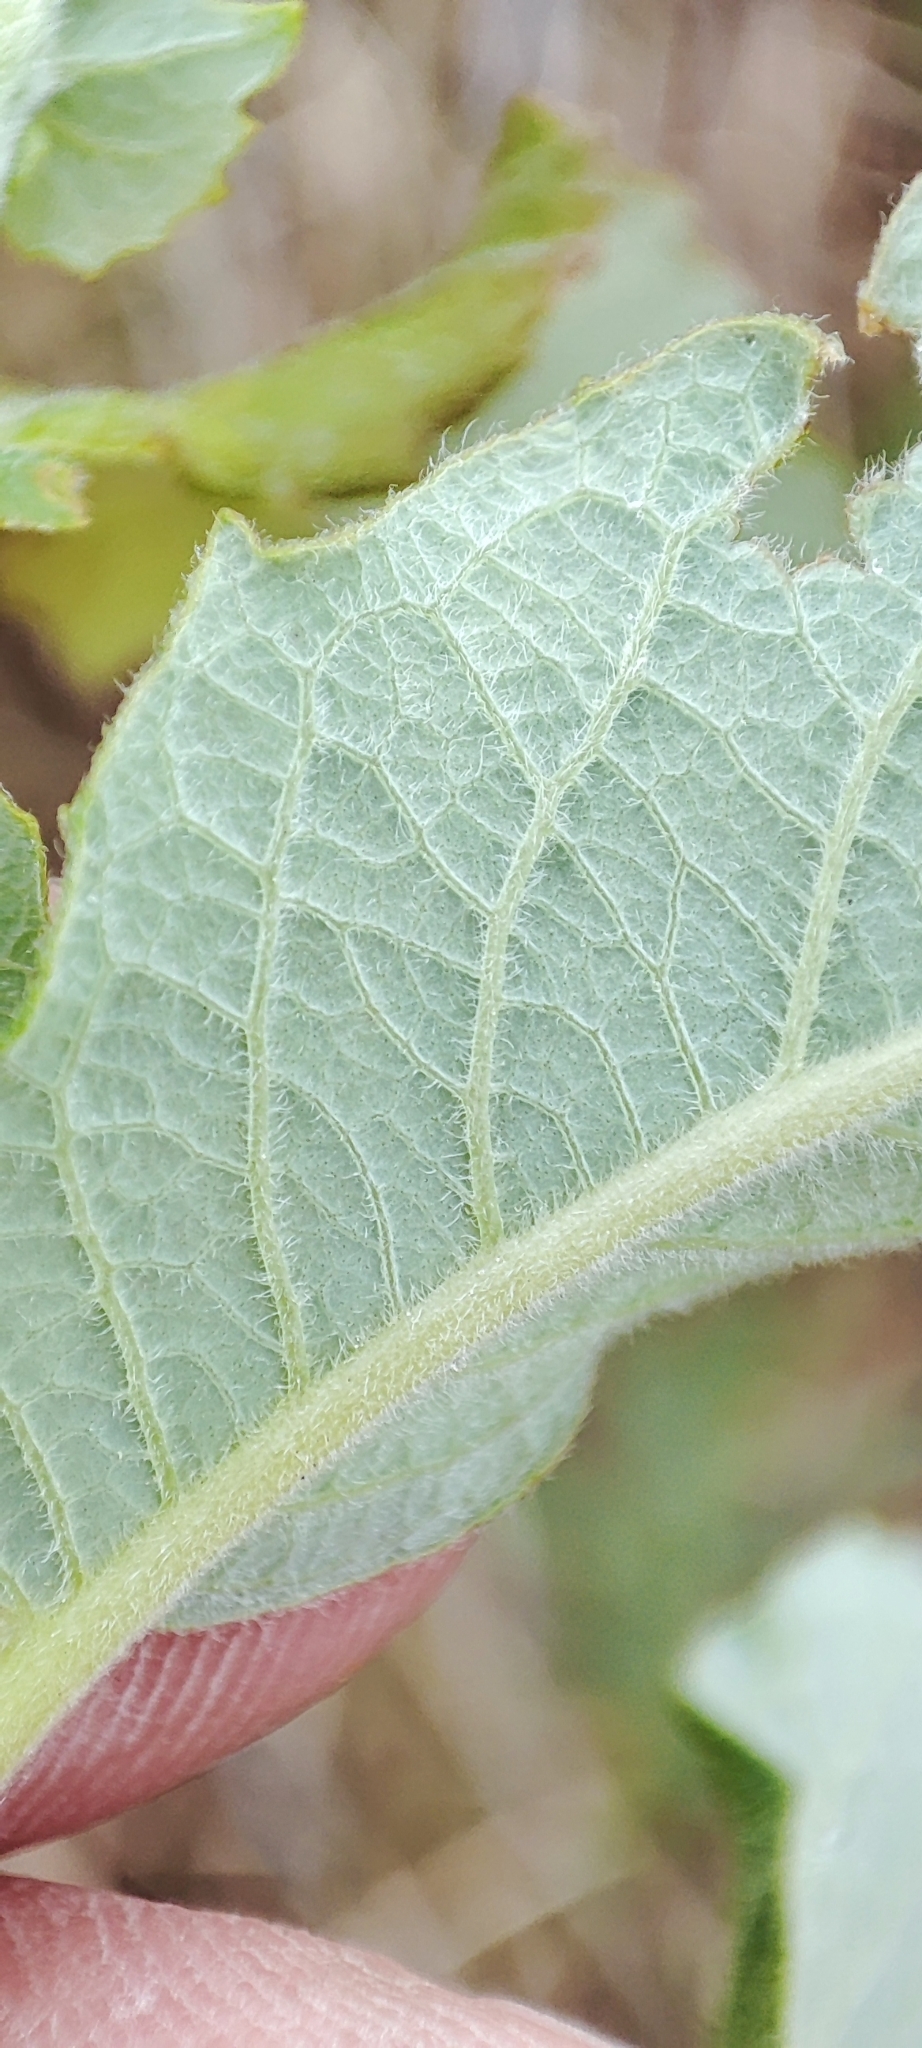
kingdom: Plantae
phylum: Tracheophyta
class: Magnoliopsida
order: Malpighiales
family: Salicaceae
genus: Salix
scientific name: Salix cinerea
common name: Common sallow
